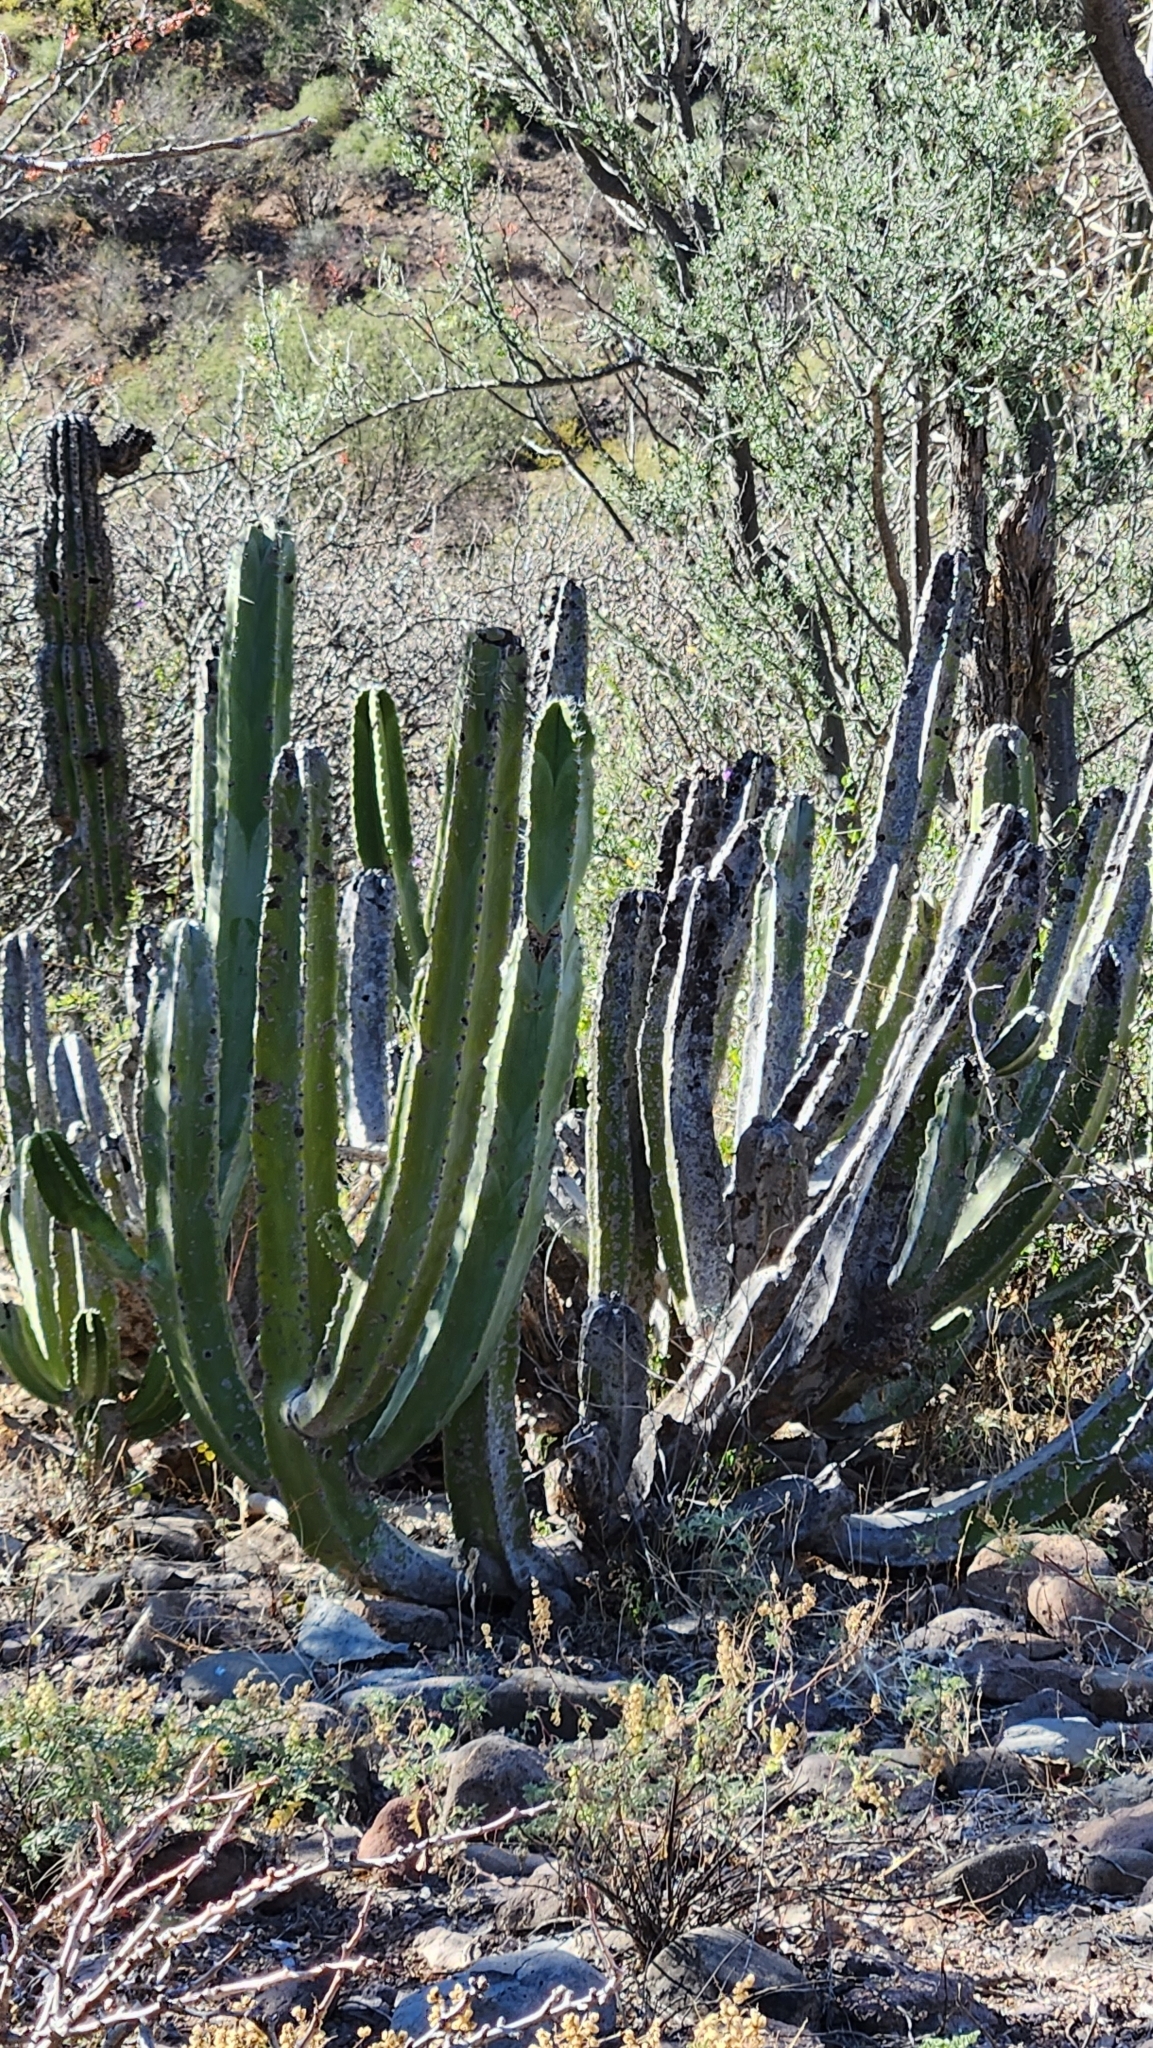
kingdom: Plantae
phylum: Tracheophyta
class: Magnoliopsida
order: Caryophyllales
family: Cactaceae
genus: Pachycereus
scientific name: Pachycereus schottii
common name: Senita cactus
